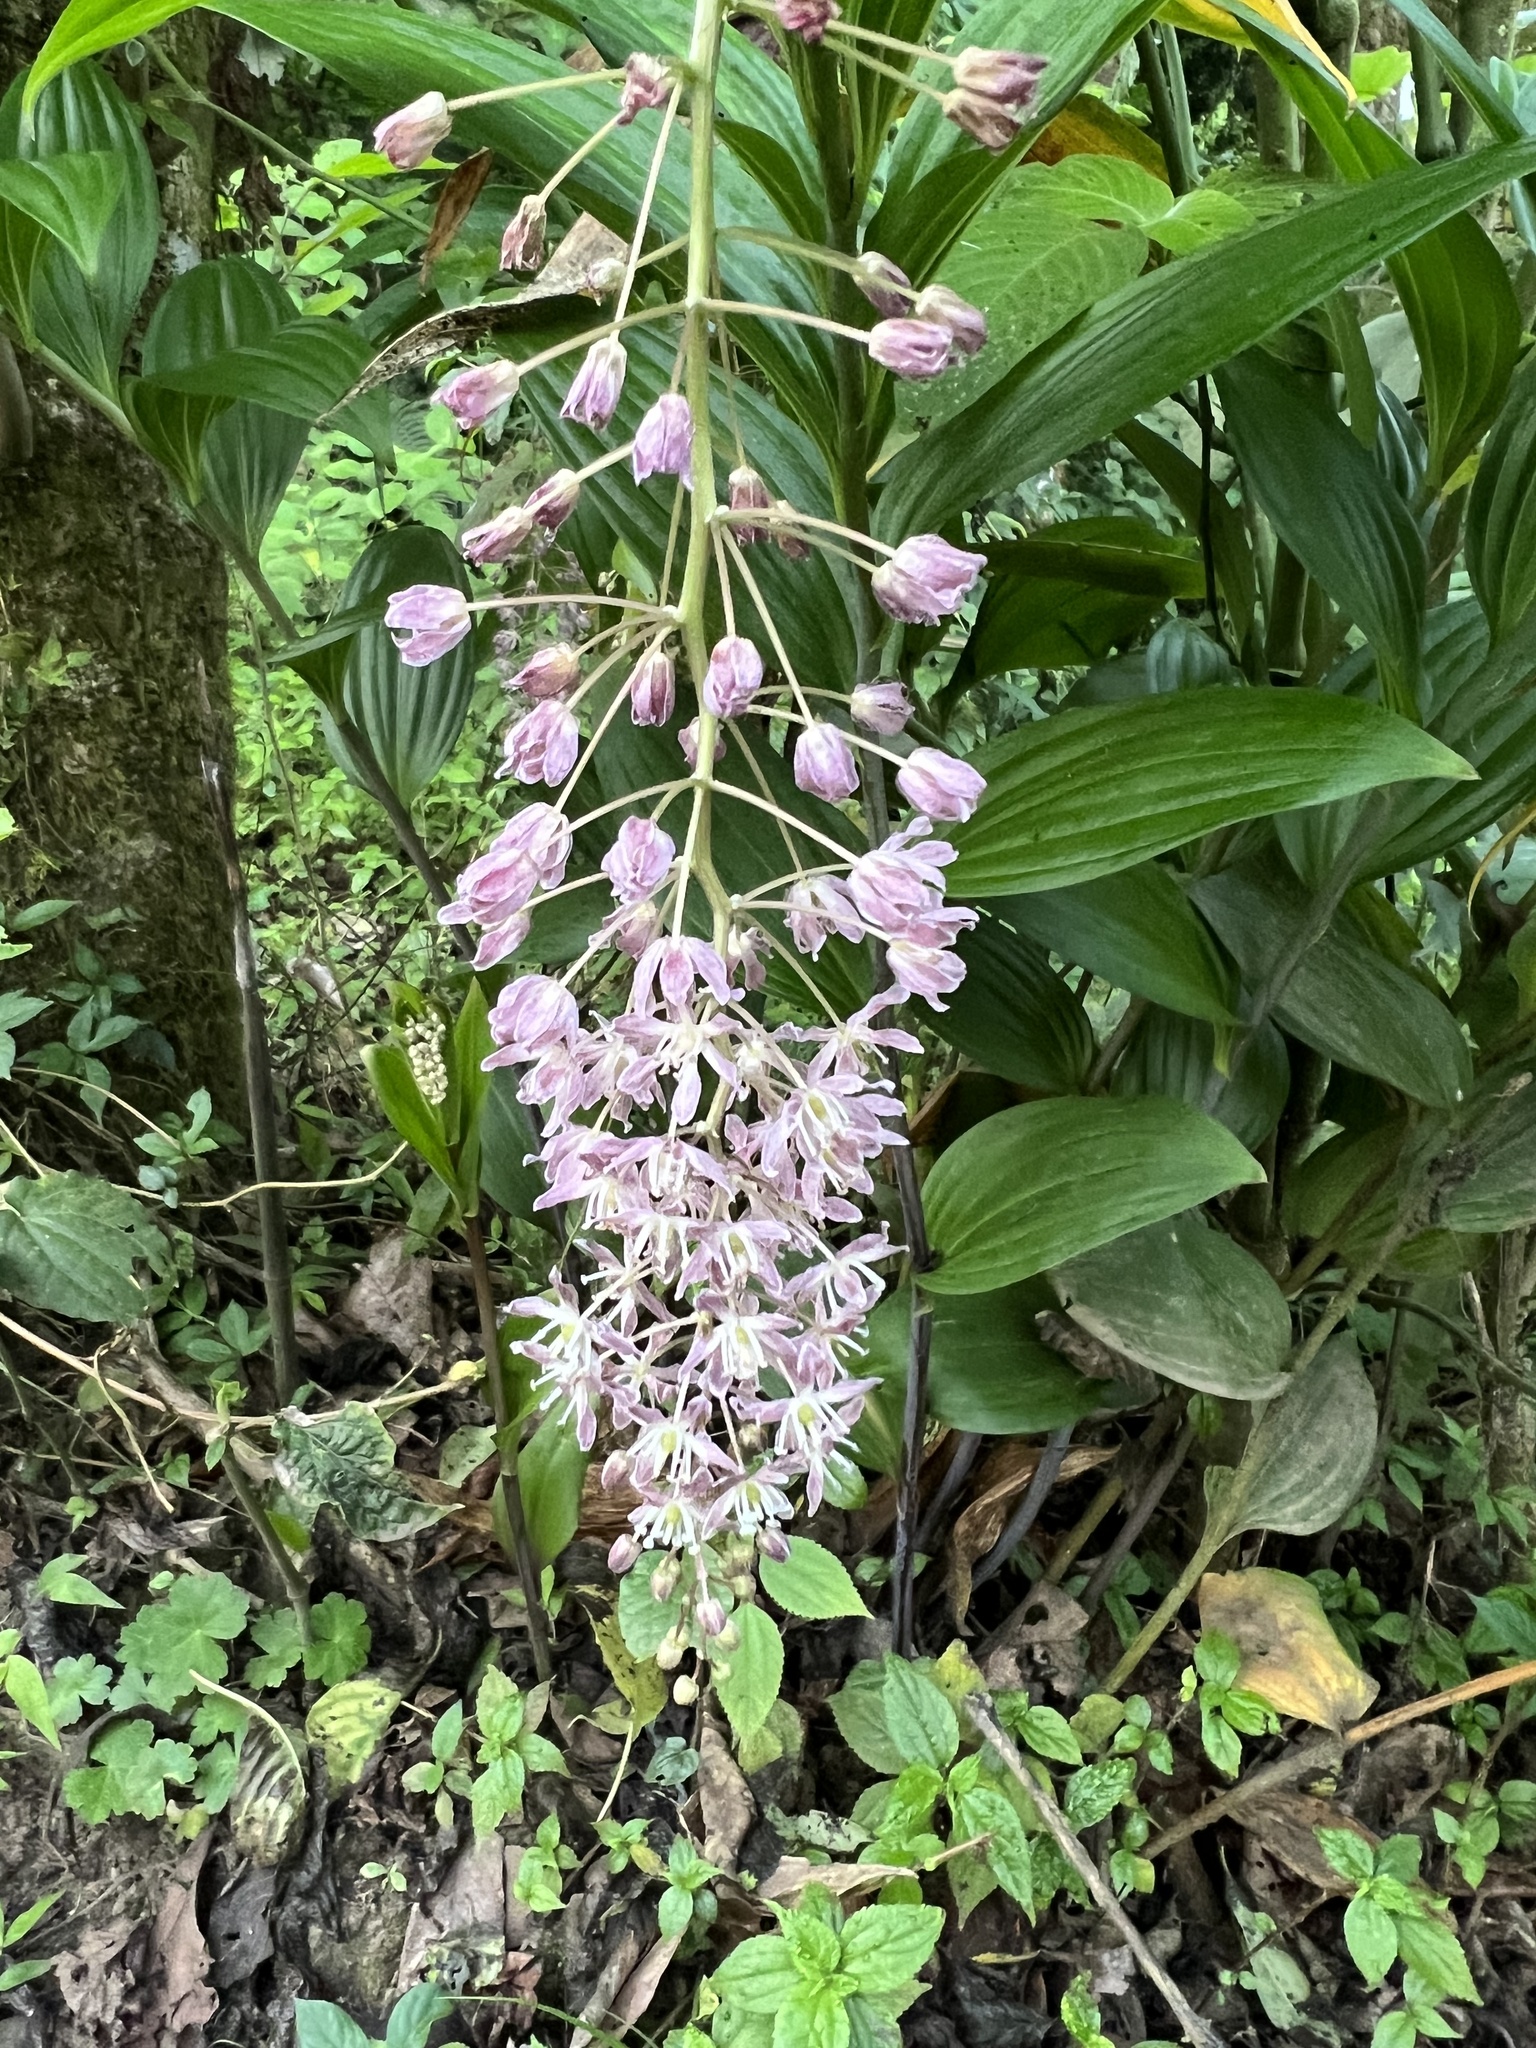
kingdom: Plantae
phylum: Tracheophyta
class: Liliopsida
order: Asparagales
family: Asparagaceae
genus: Maianthemum
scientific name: Maianthemum flexuosum
